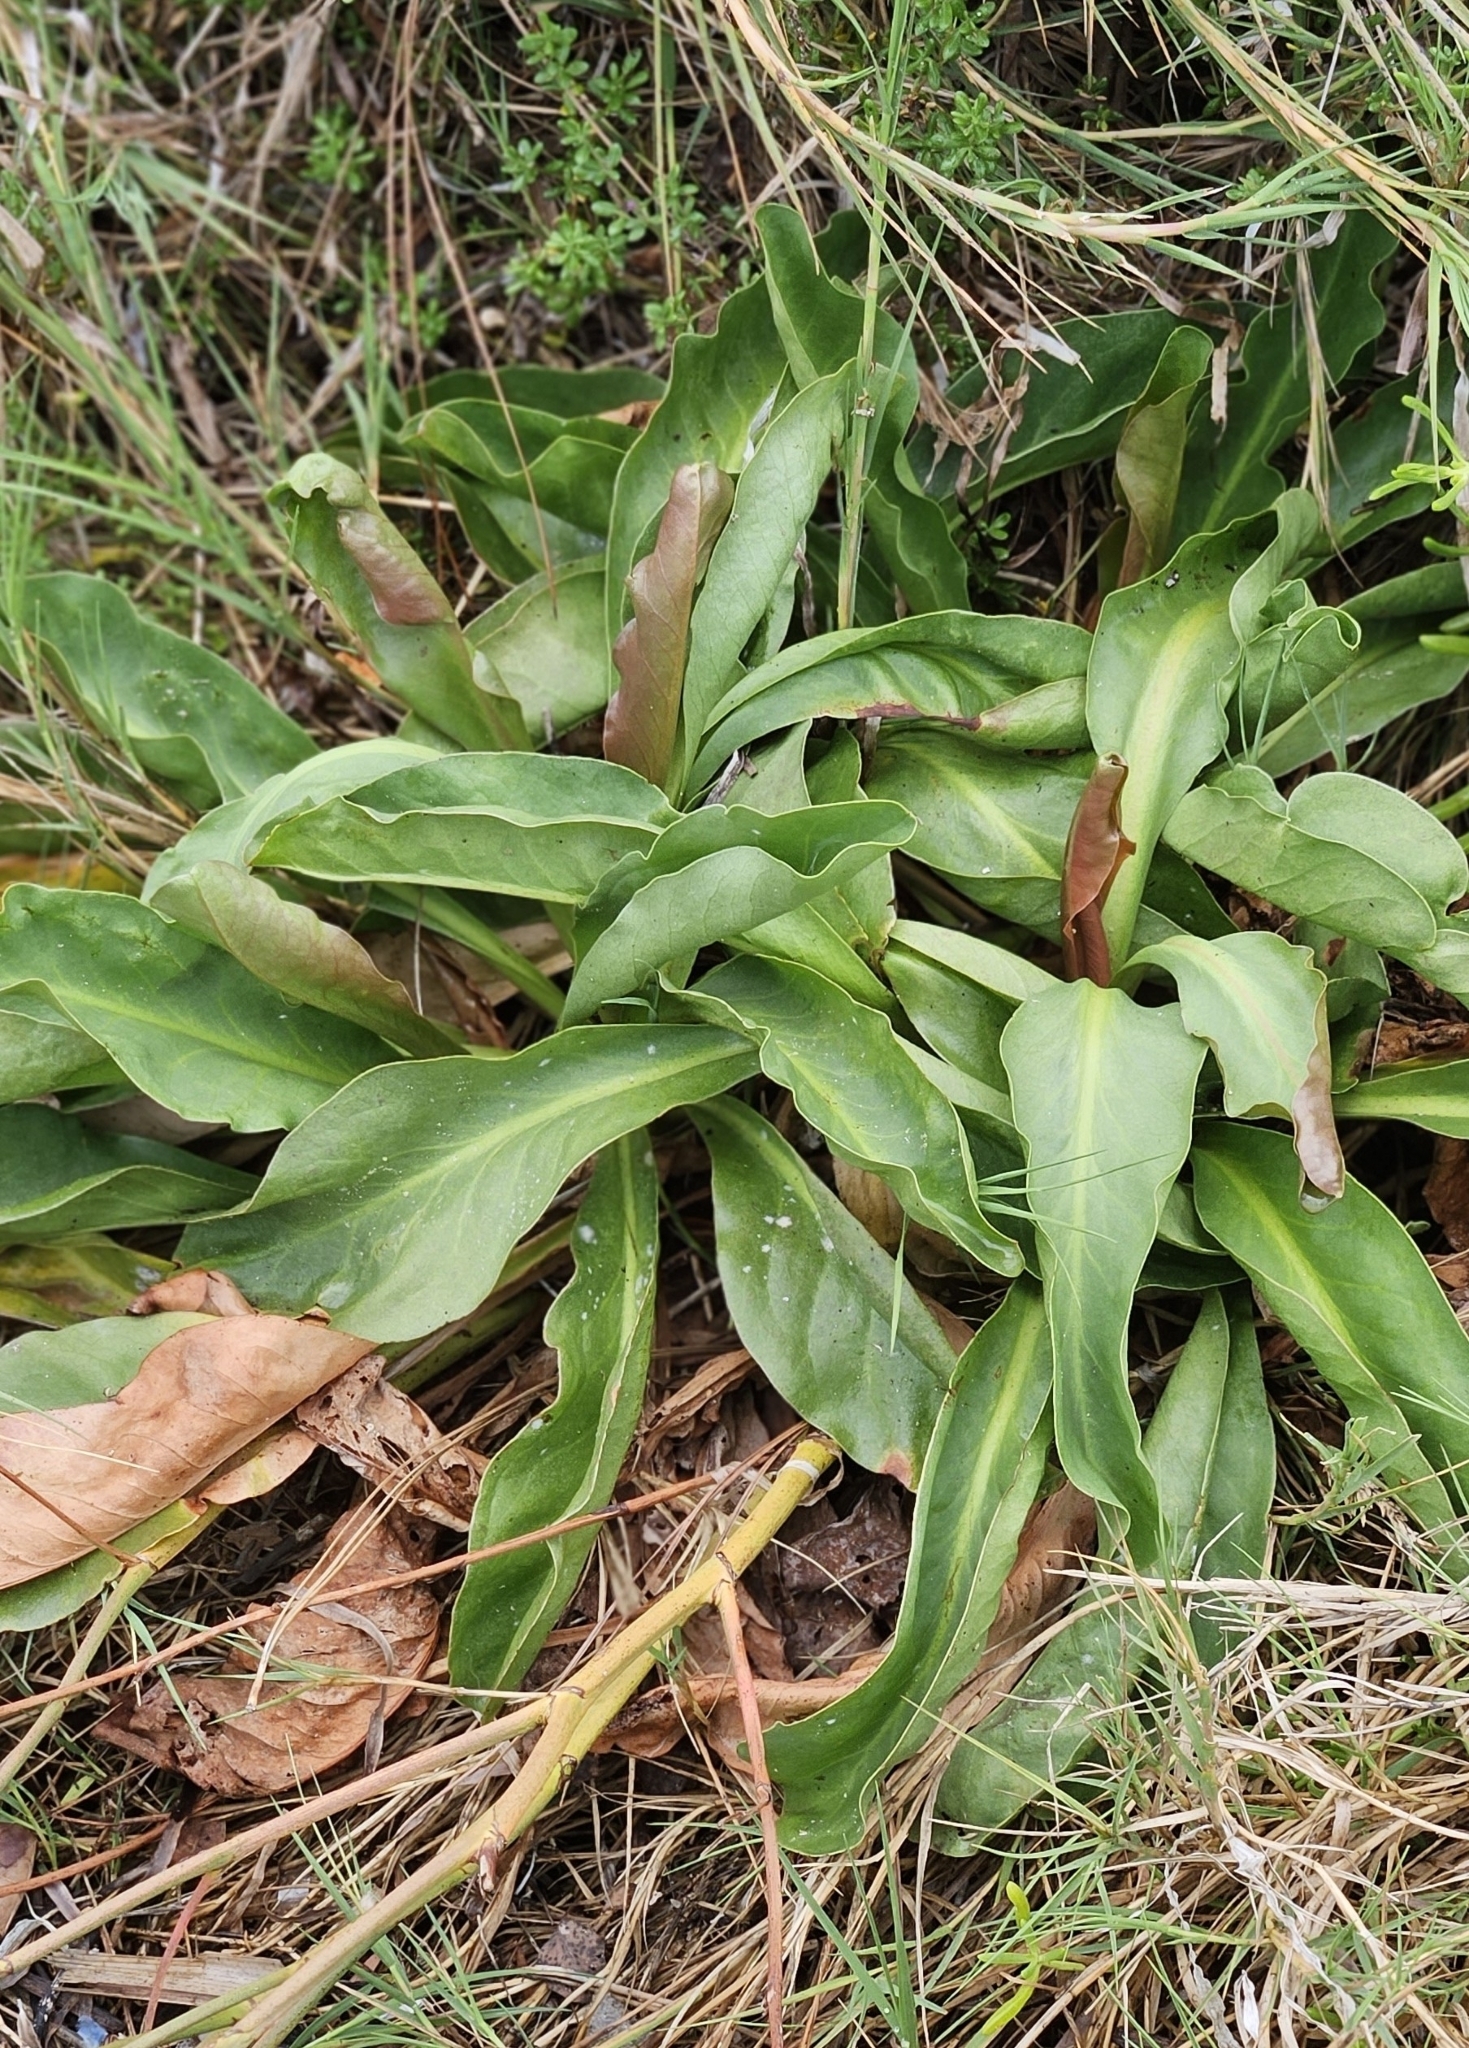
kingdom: Plantae
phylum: Tracheophyta
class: Magnoliopsida
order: Piperales
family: Saururaceae
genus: Anemopsis
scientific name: Anemopsis californica
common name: Apache-beads
